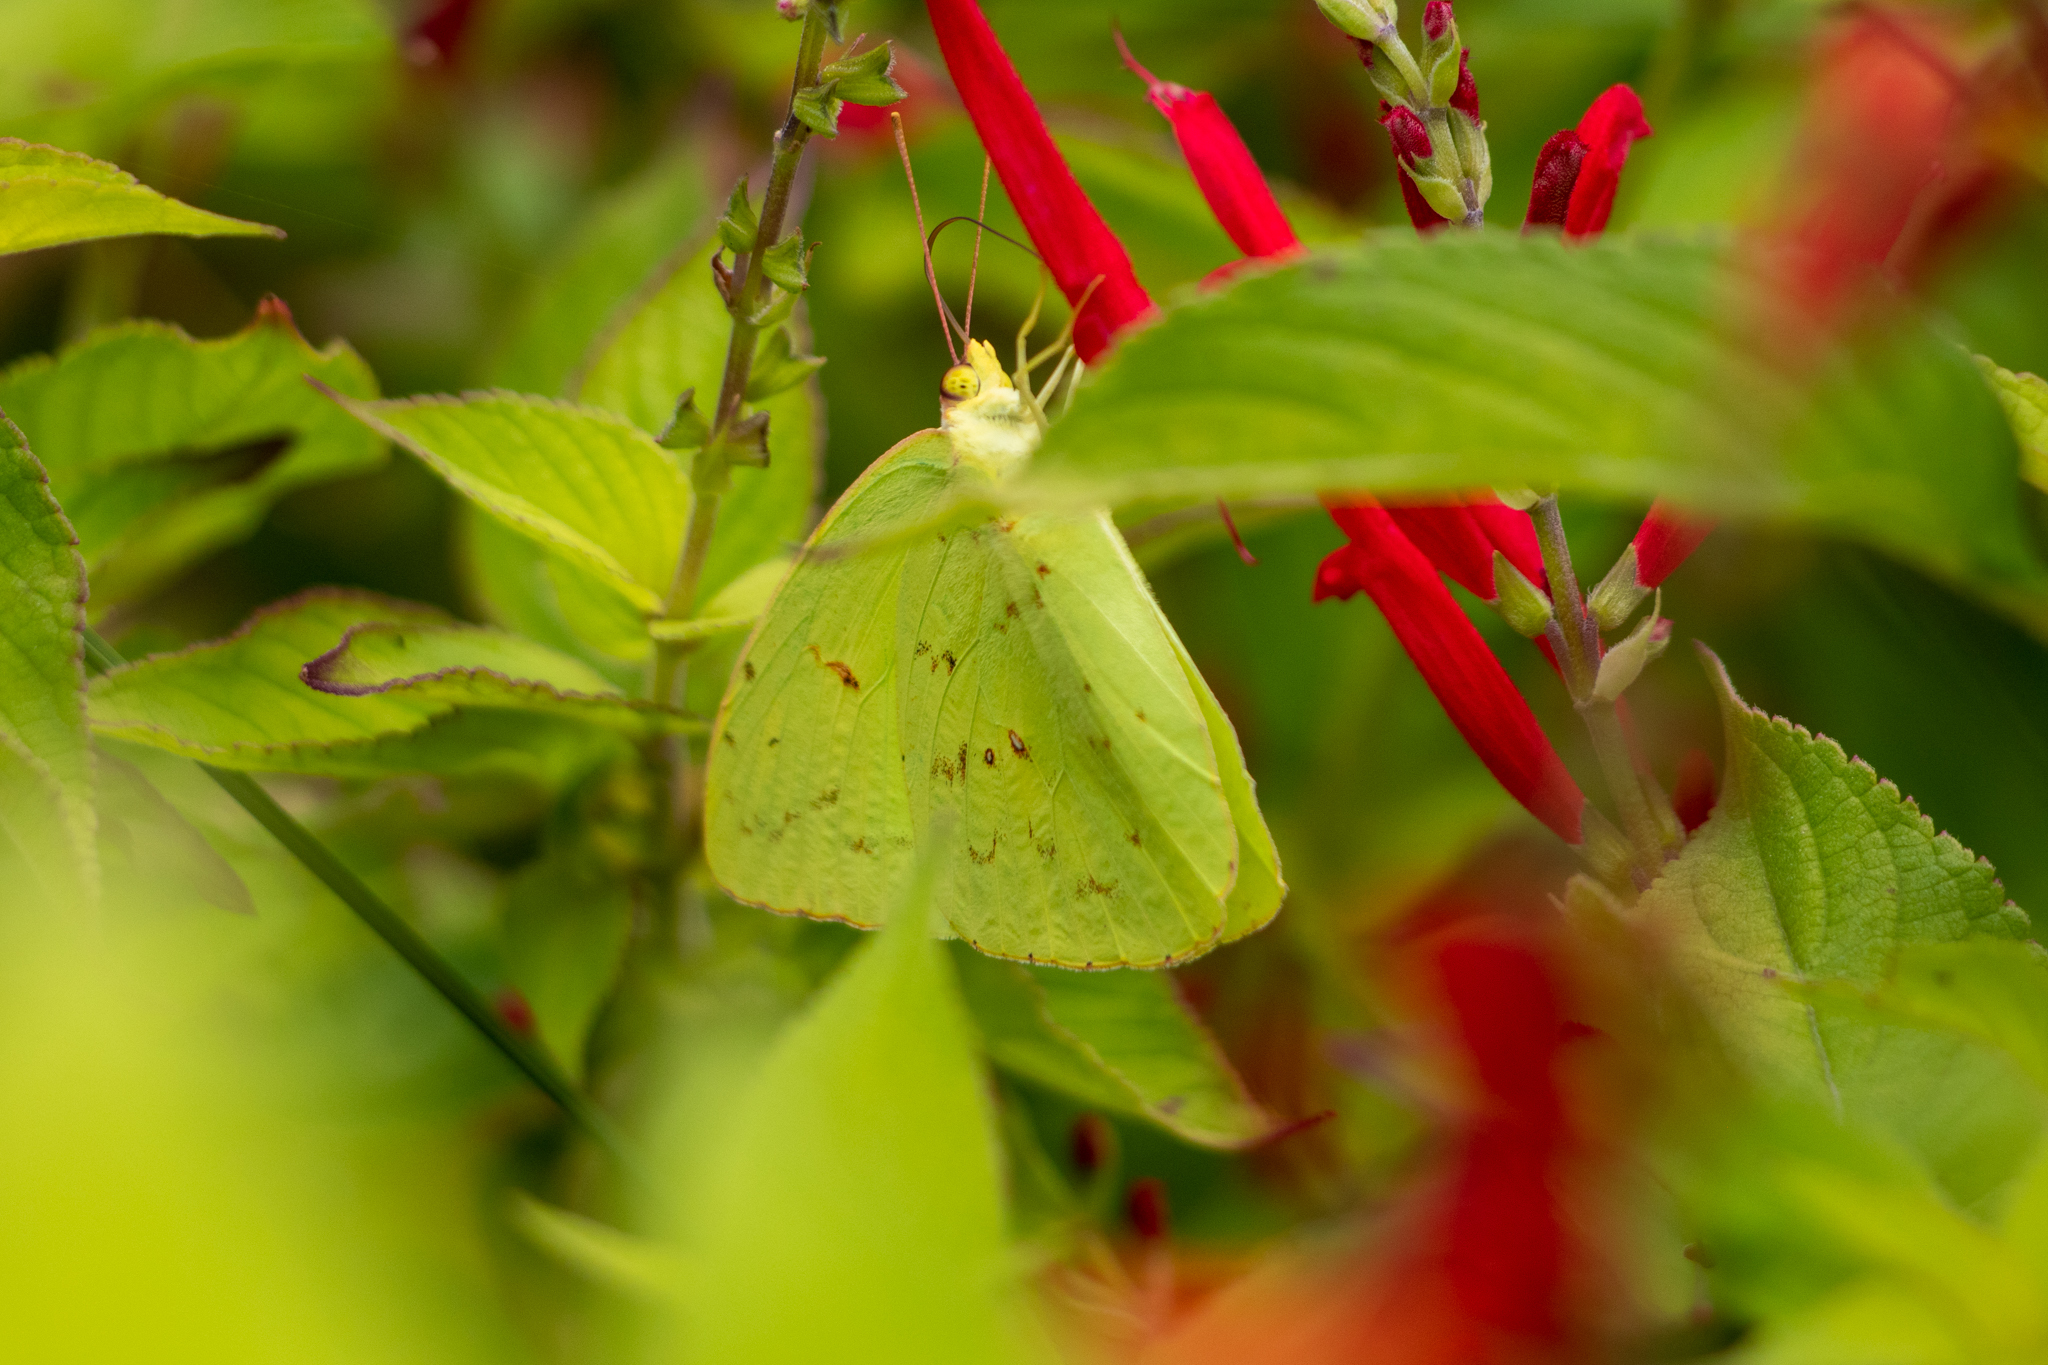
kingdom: Animalia
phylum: Arthropoda
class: Insecta
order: Lepidoptera
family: Pieridae
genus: Phoebis
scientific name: Phoebis sennae
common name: Cloudless sulphur
